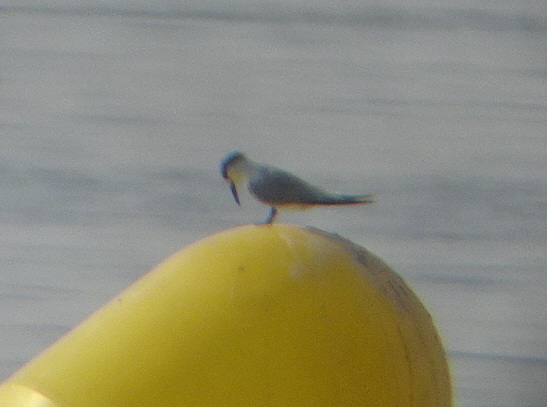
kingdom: Animalia
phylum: Chordata
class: Aves
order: Charadriiformes
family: Laridae
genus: Thalasseus
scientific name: Thalasseus sandvicensis
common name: Sandwich tern
